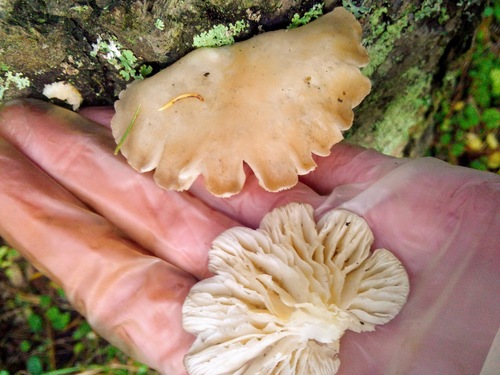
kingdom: Fungi
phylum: Basidiomycota
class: Agaricomycetes
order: Agaricales
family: Pleurotaceae
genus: Pleurotus
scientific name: Pleurotus pulmonarius
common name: Pale oyster
